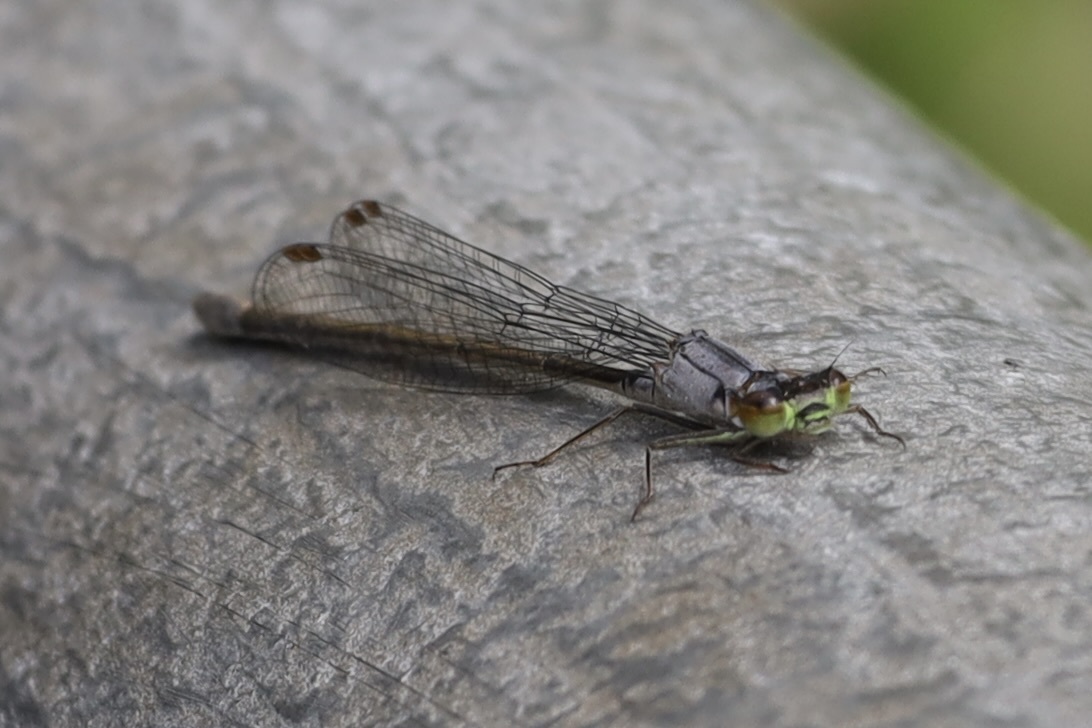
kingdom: Animalia
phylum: Arthropoda
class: Insecta
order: Odonata
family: Coenagrionidae
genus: Ischnura
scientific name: Ischnura cervula
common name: Pacific forktail
